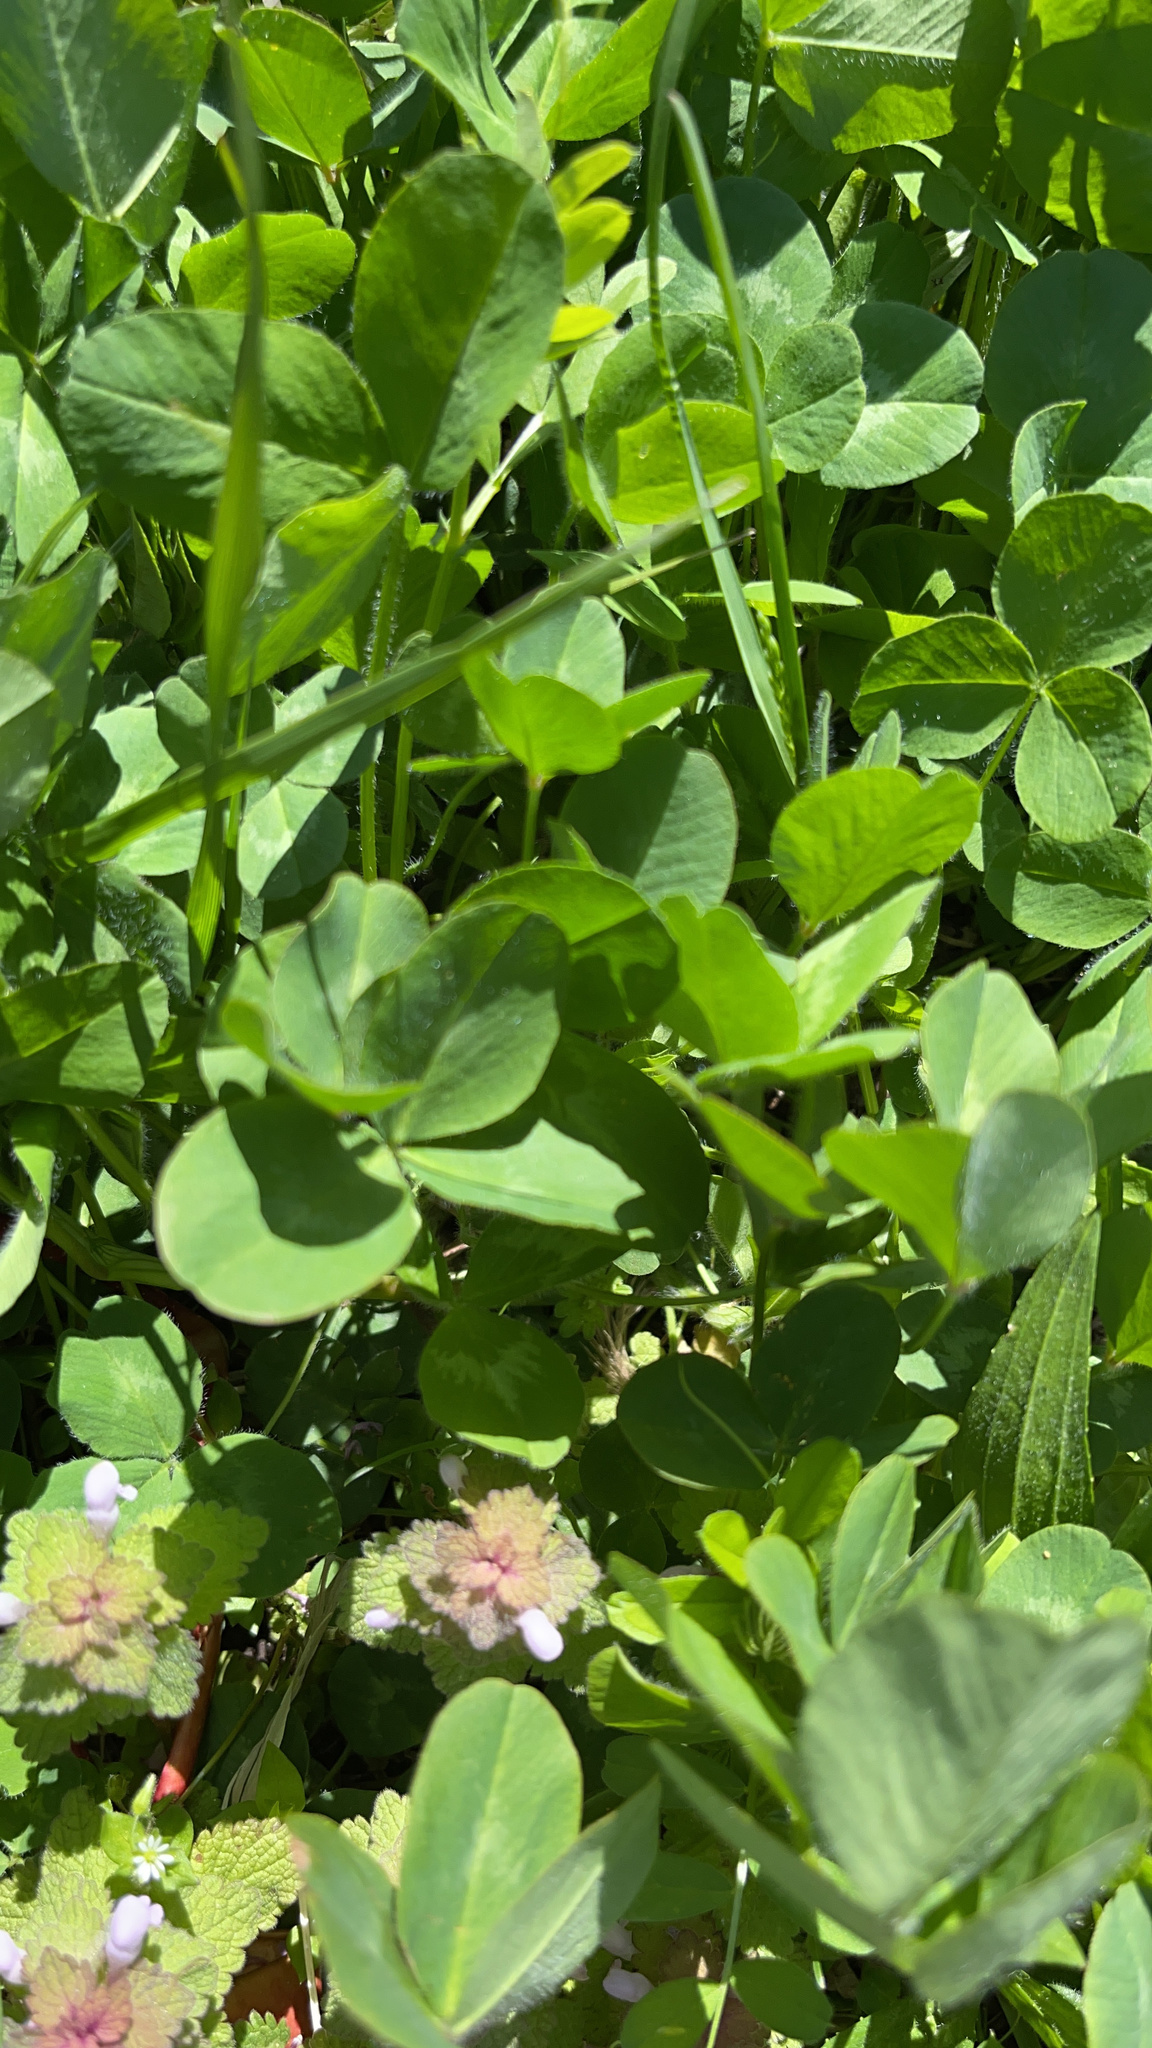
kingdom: Plantae
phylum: Tracheophyta
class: Magnoliopsida
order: Fabales
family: Fabaceae
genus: Trifolium
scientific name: Trifolium repens
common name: White clover
